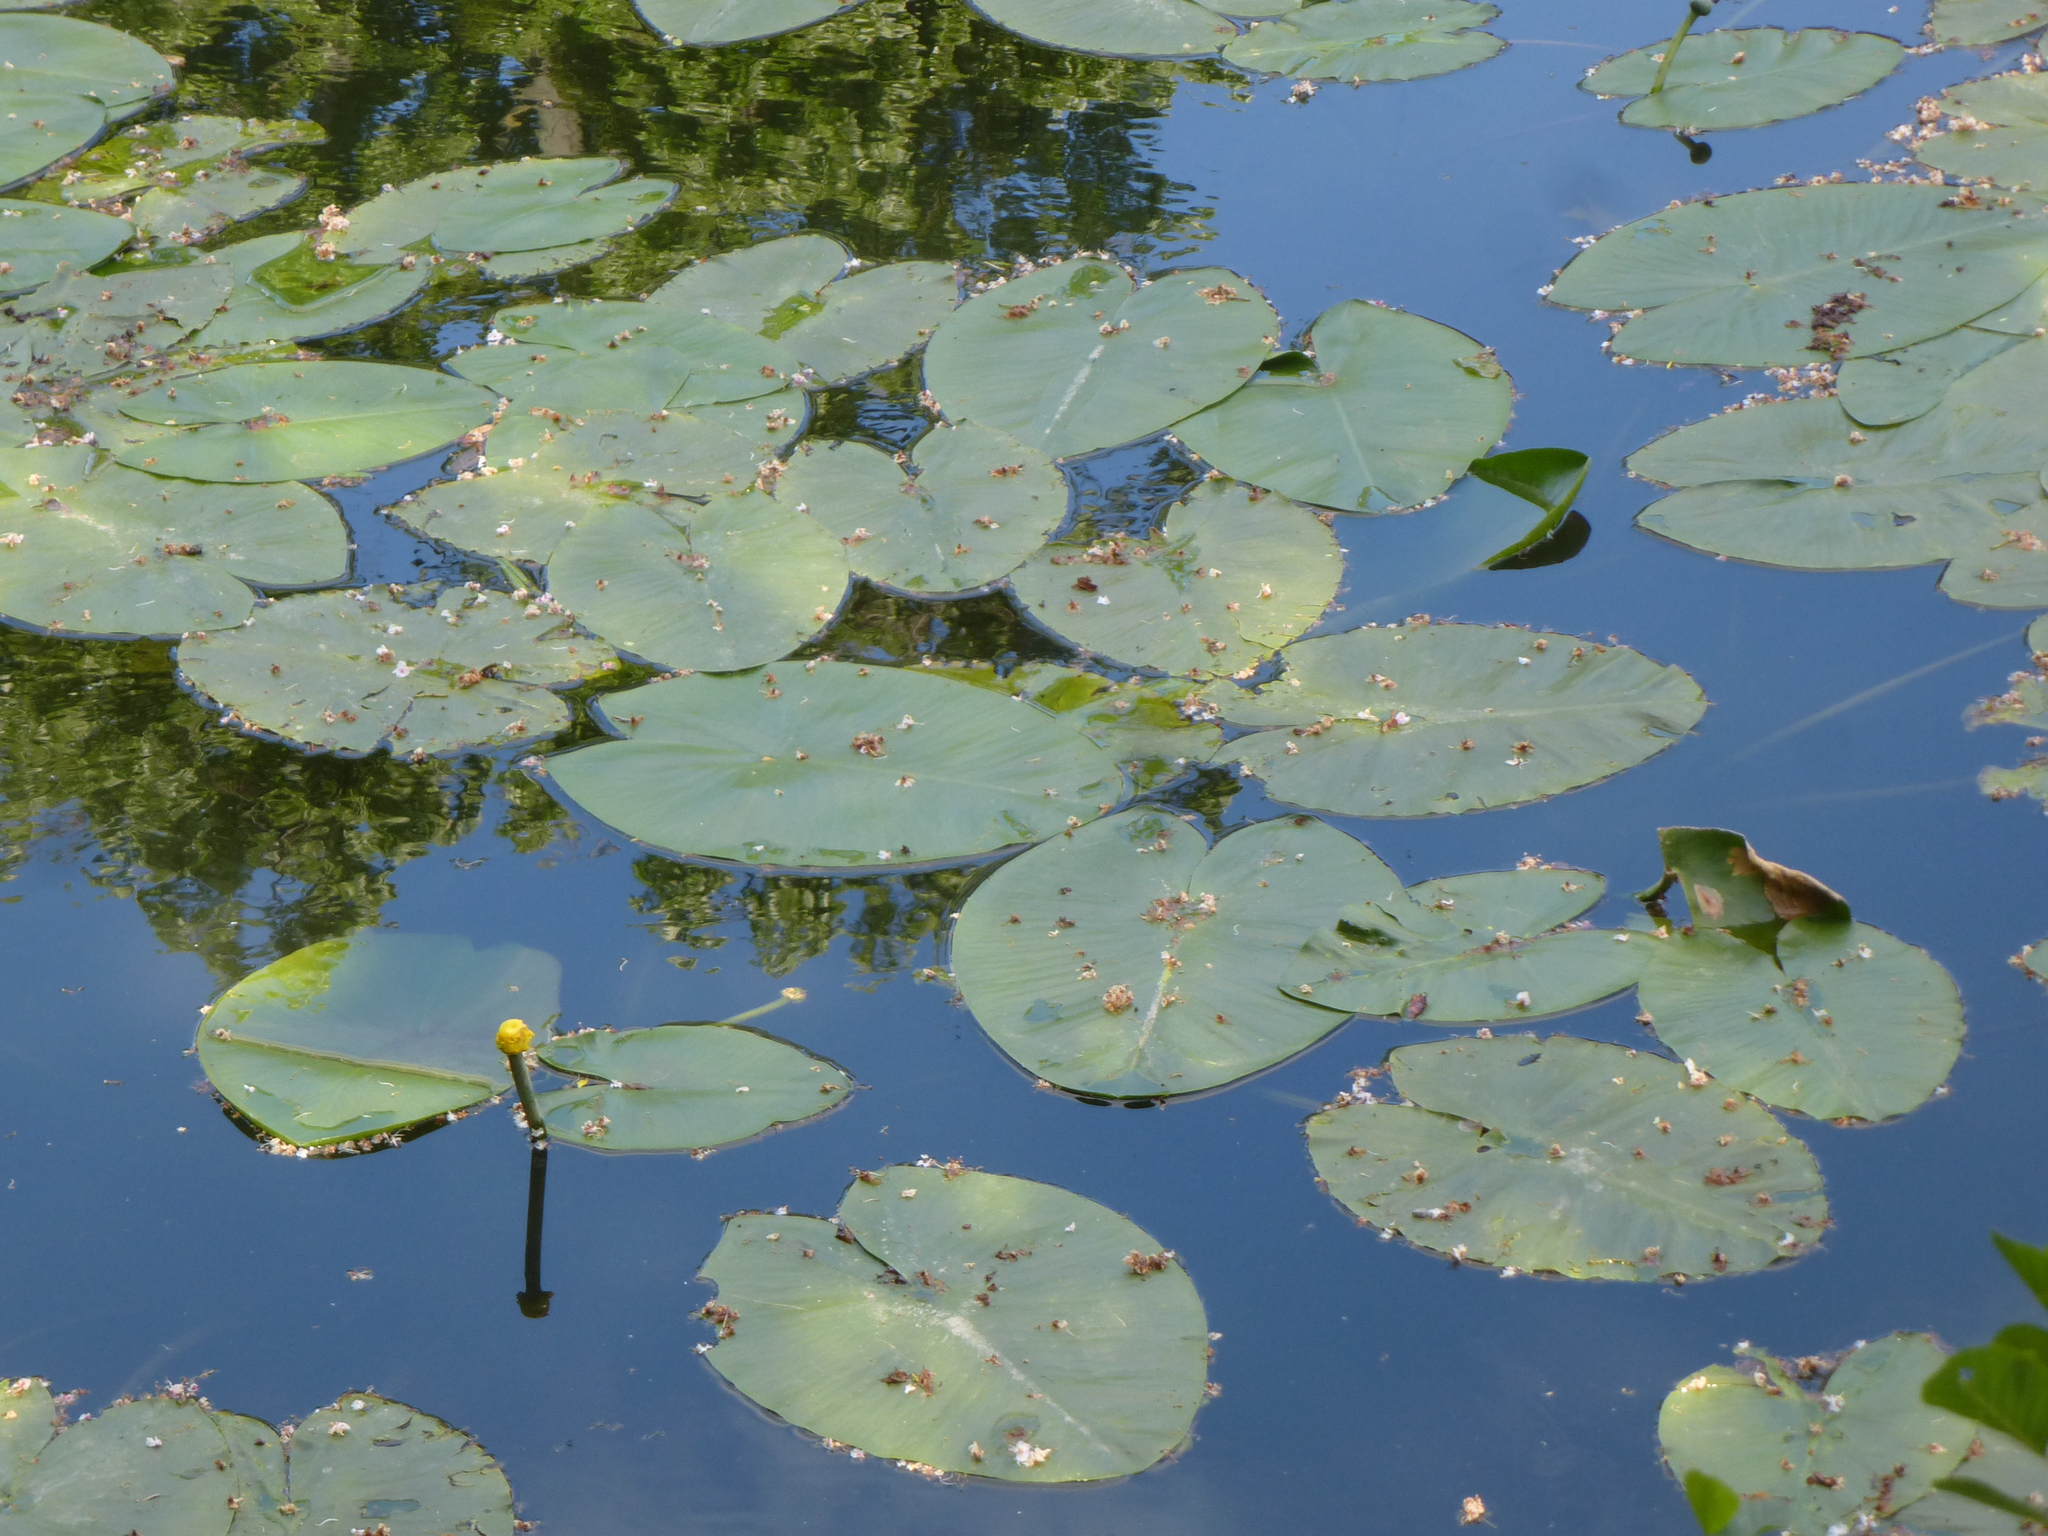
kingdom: Plantae
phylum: Tracheophyta
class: Magnoliopsida
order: Nymphaeales
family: Nymphaeaceae
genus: Nuphar
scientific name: Nuphar lutea
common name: Yellow water-lily
